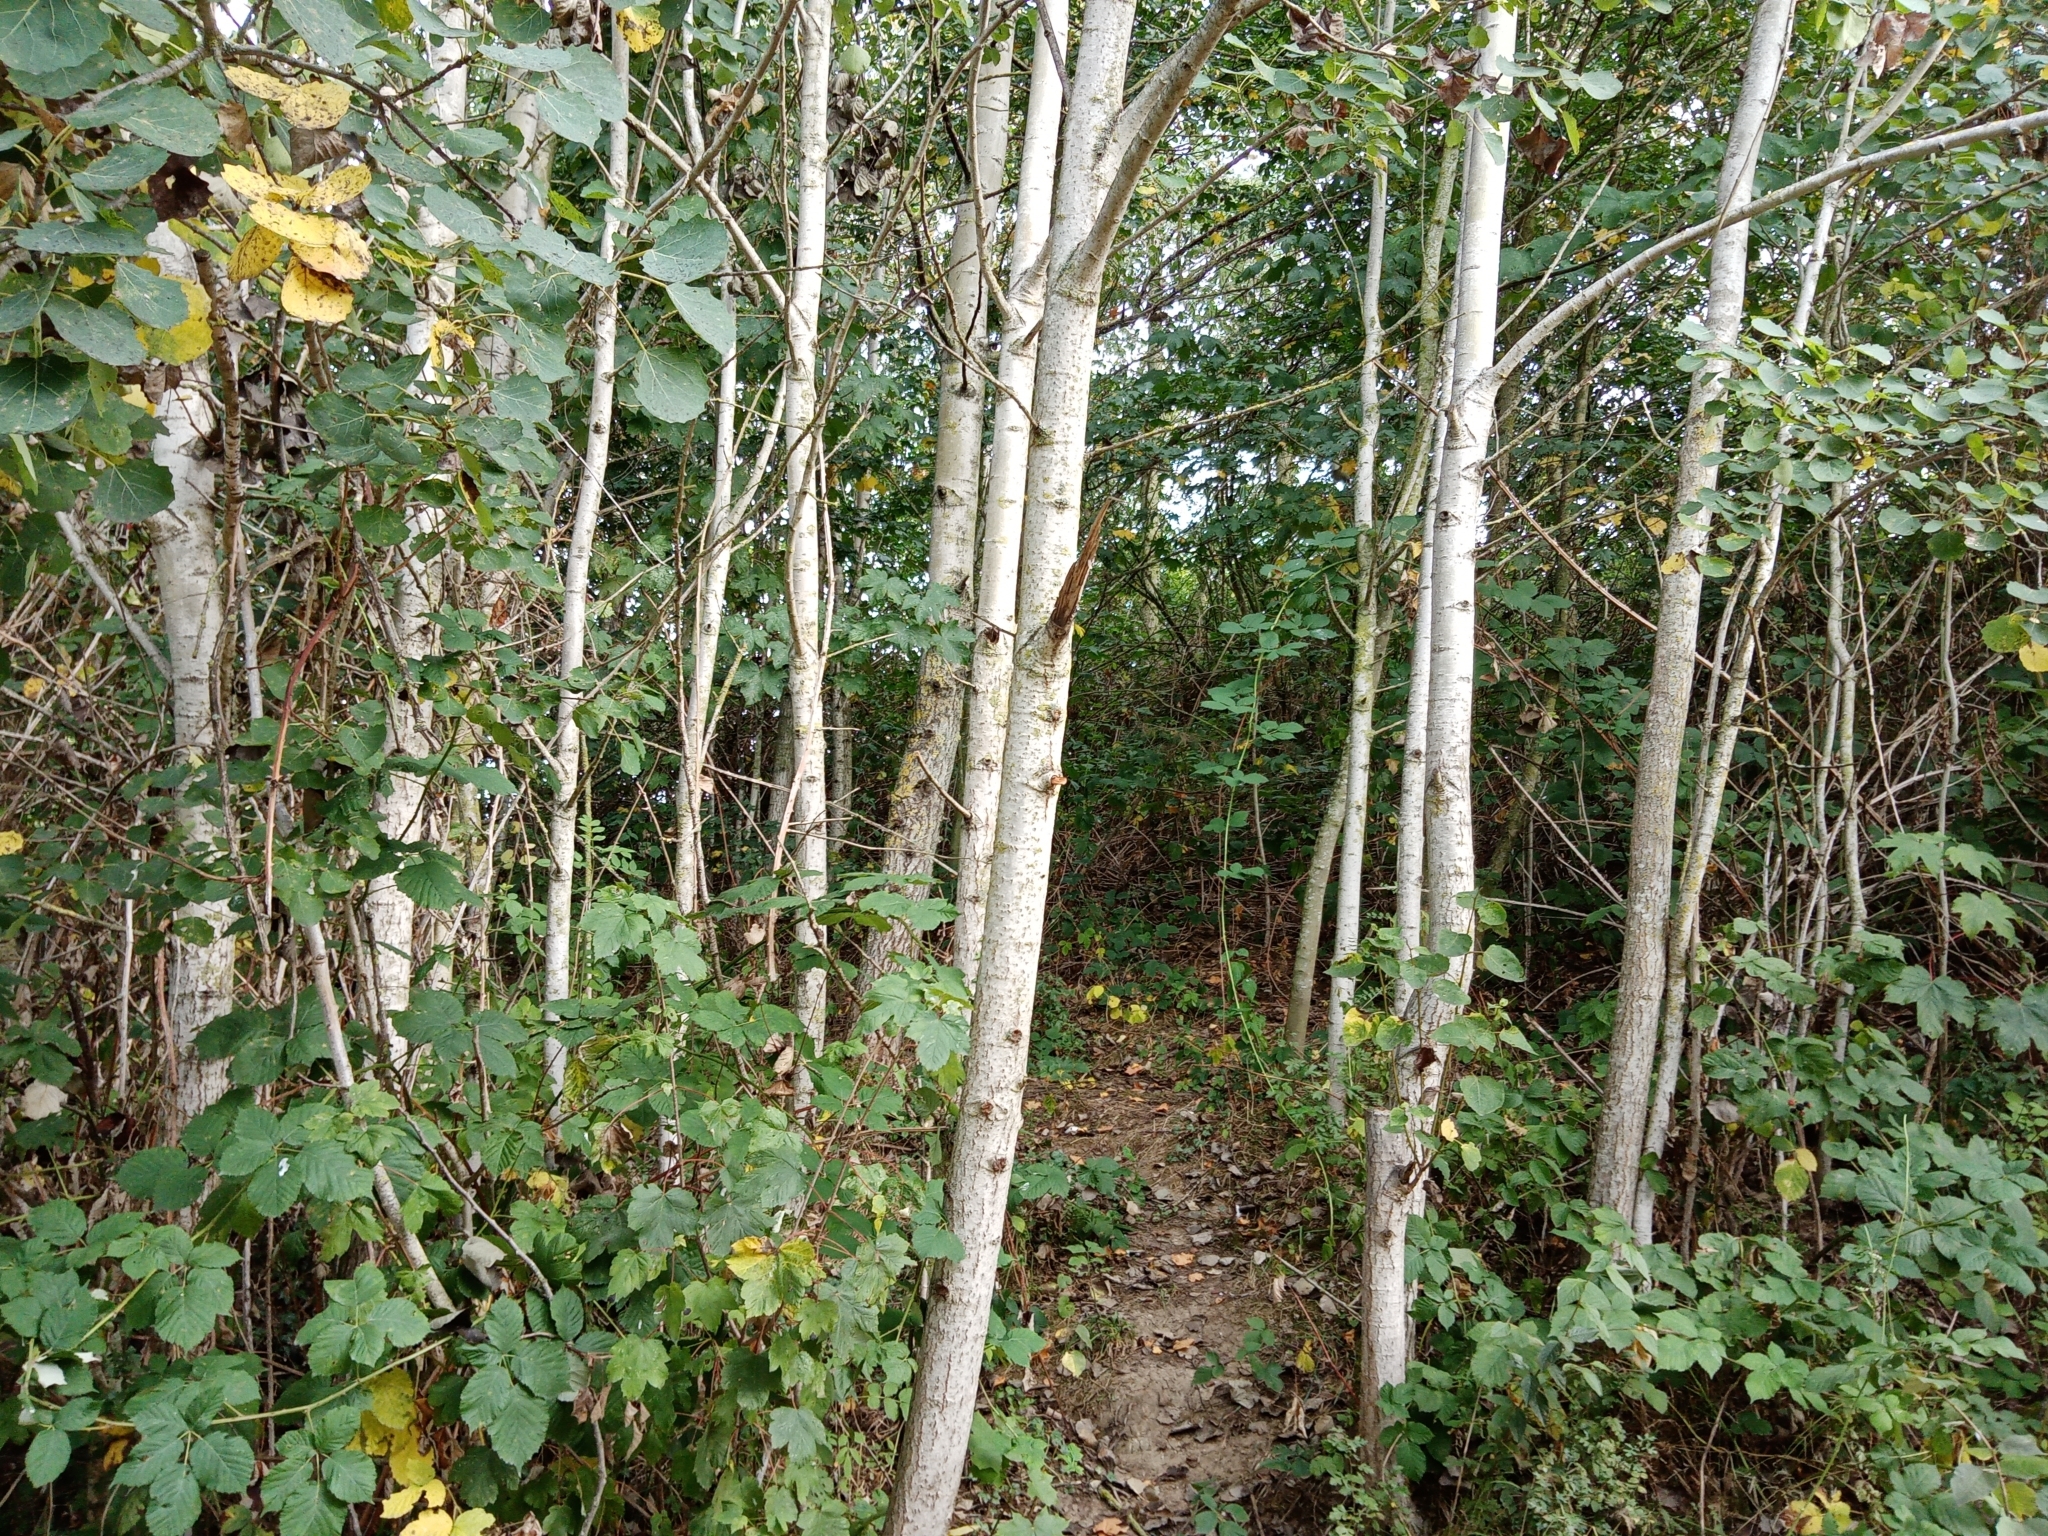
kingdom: Plantae
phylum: Tracheophyta
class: Magnoliopsida
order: Malpighiales
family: Salicaceae
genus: Populus
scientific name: Populus tremula
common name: European aspen
